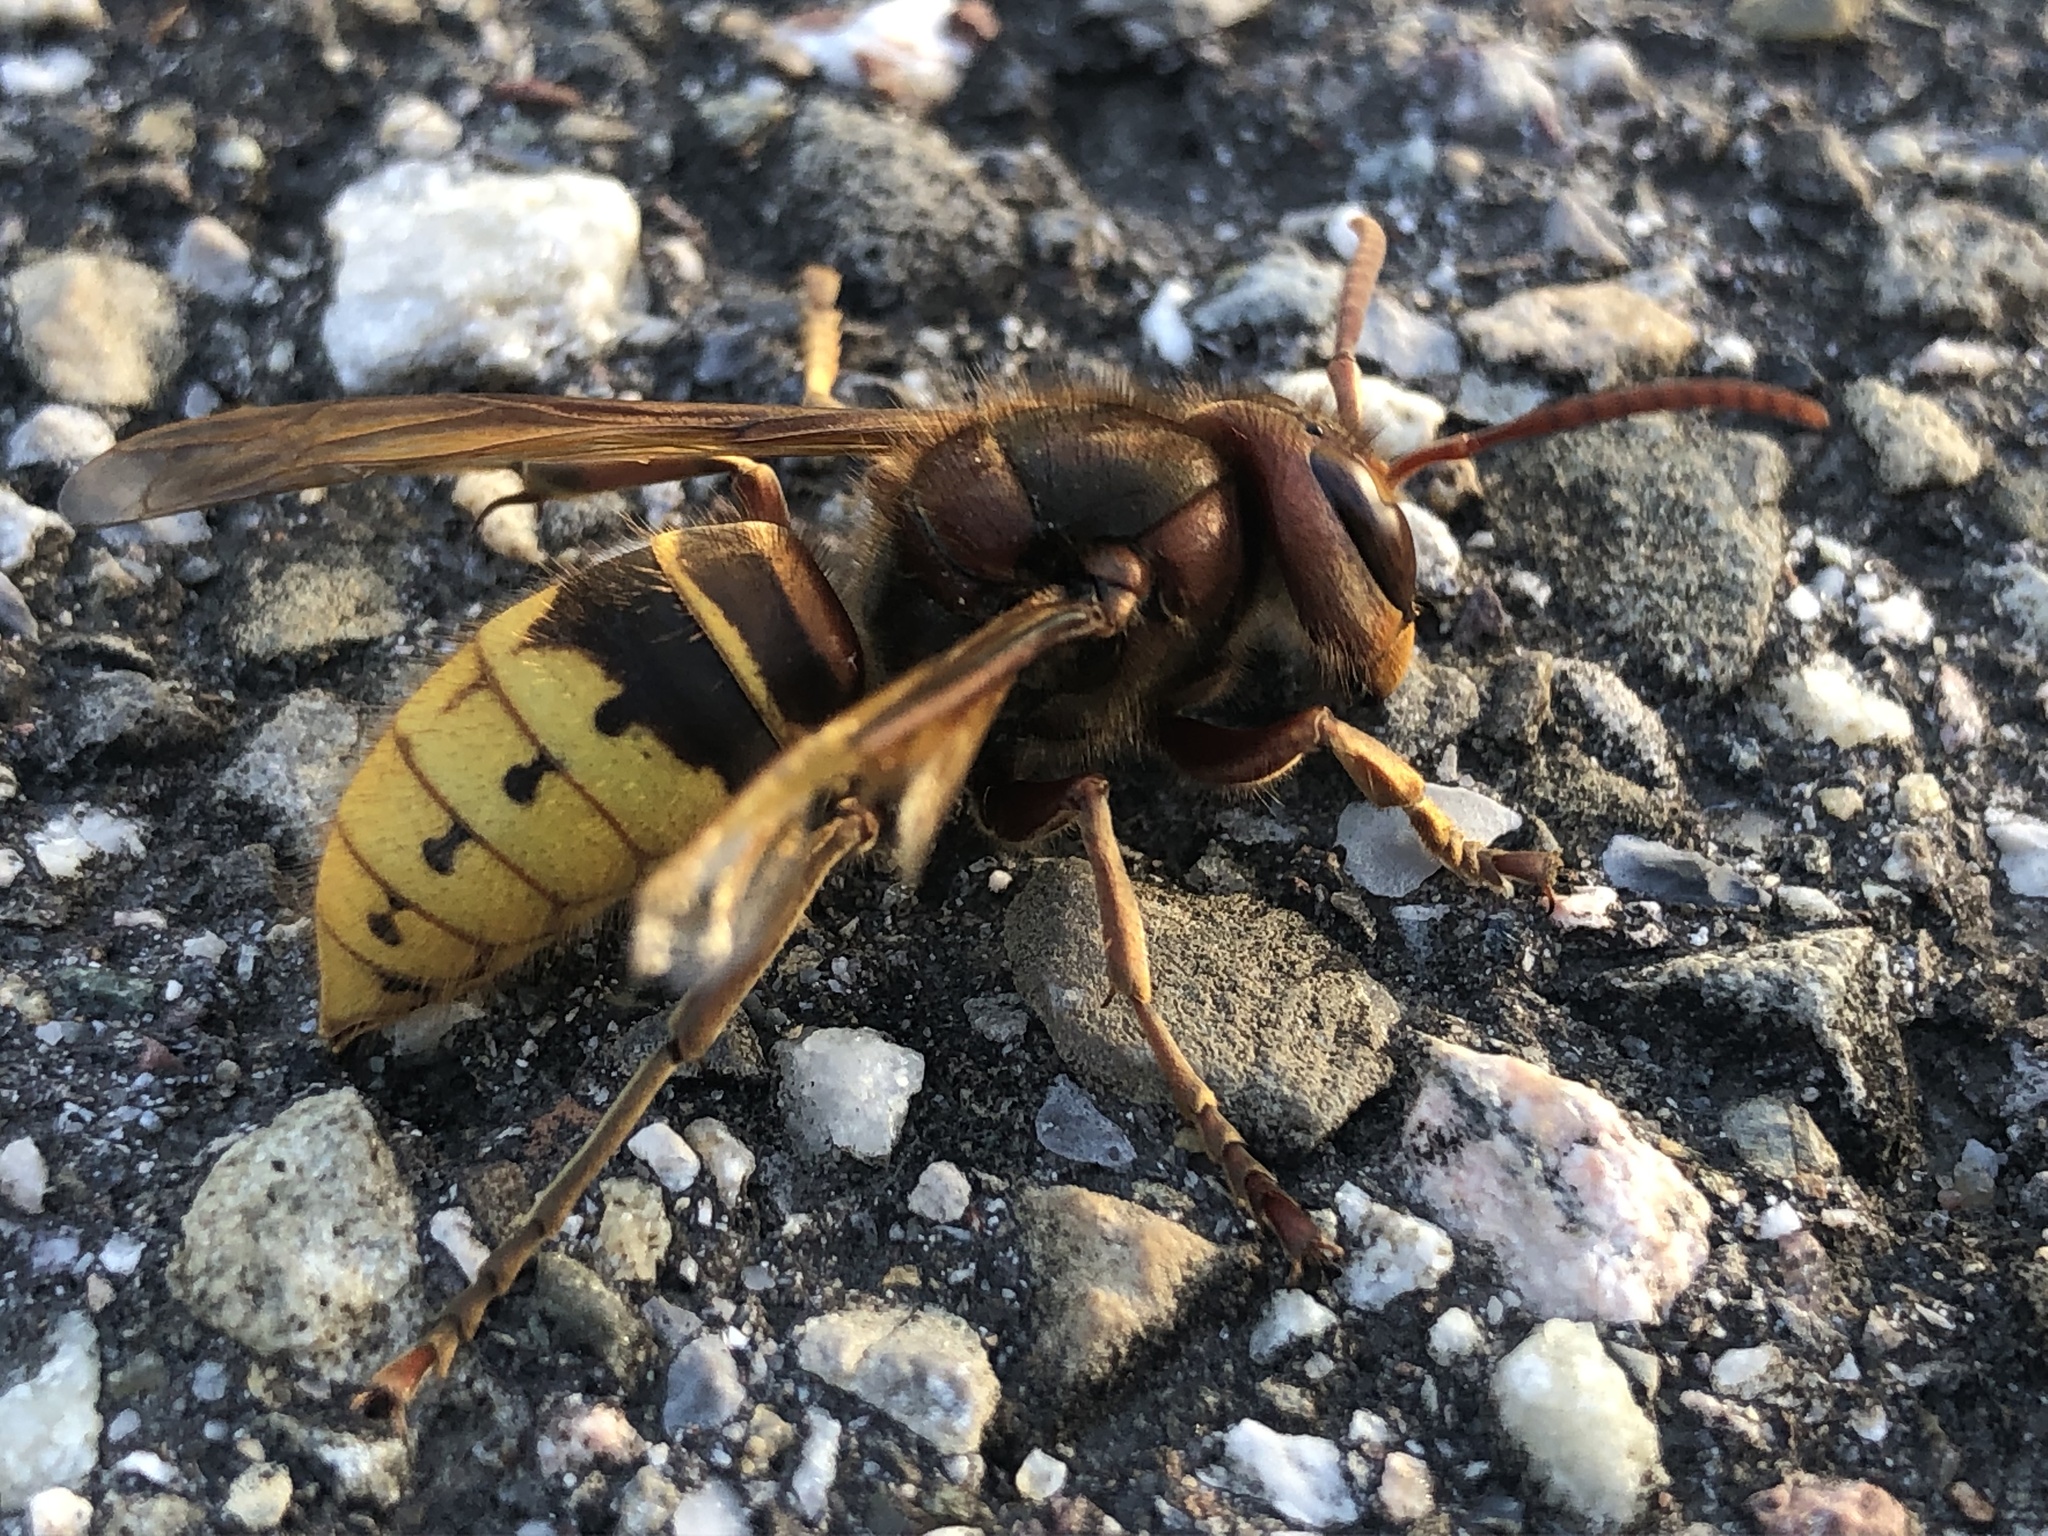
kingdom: Animalia
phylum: Arthropoda
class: Insecta
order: Hymenoptera
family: Vespidae
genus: Vespa
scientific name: Vespa crabro
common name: Hornet
